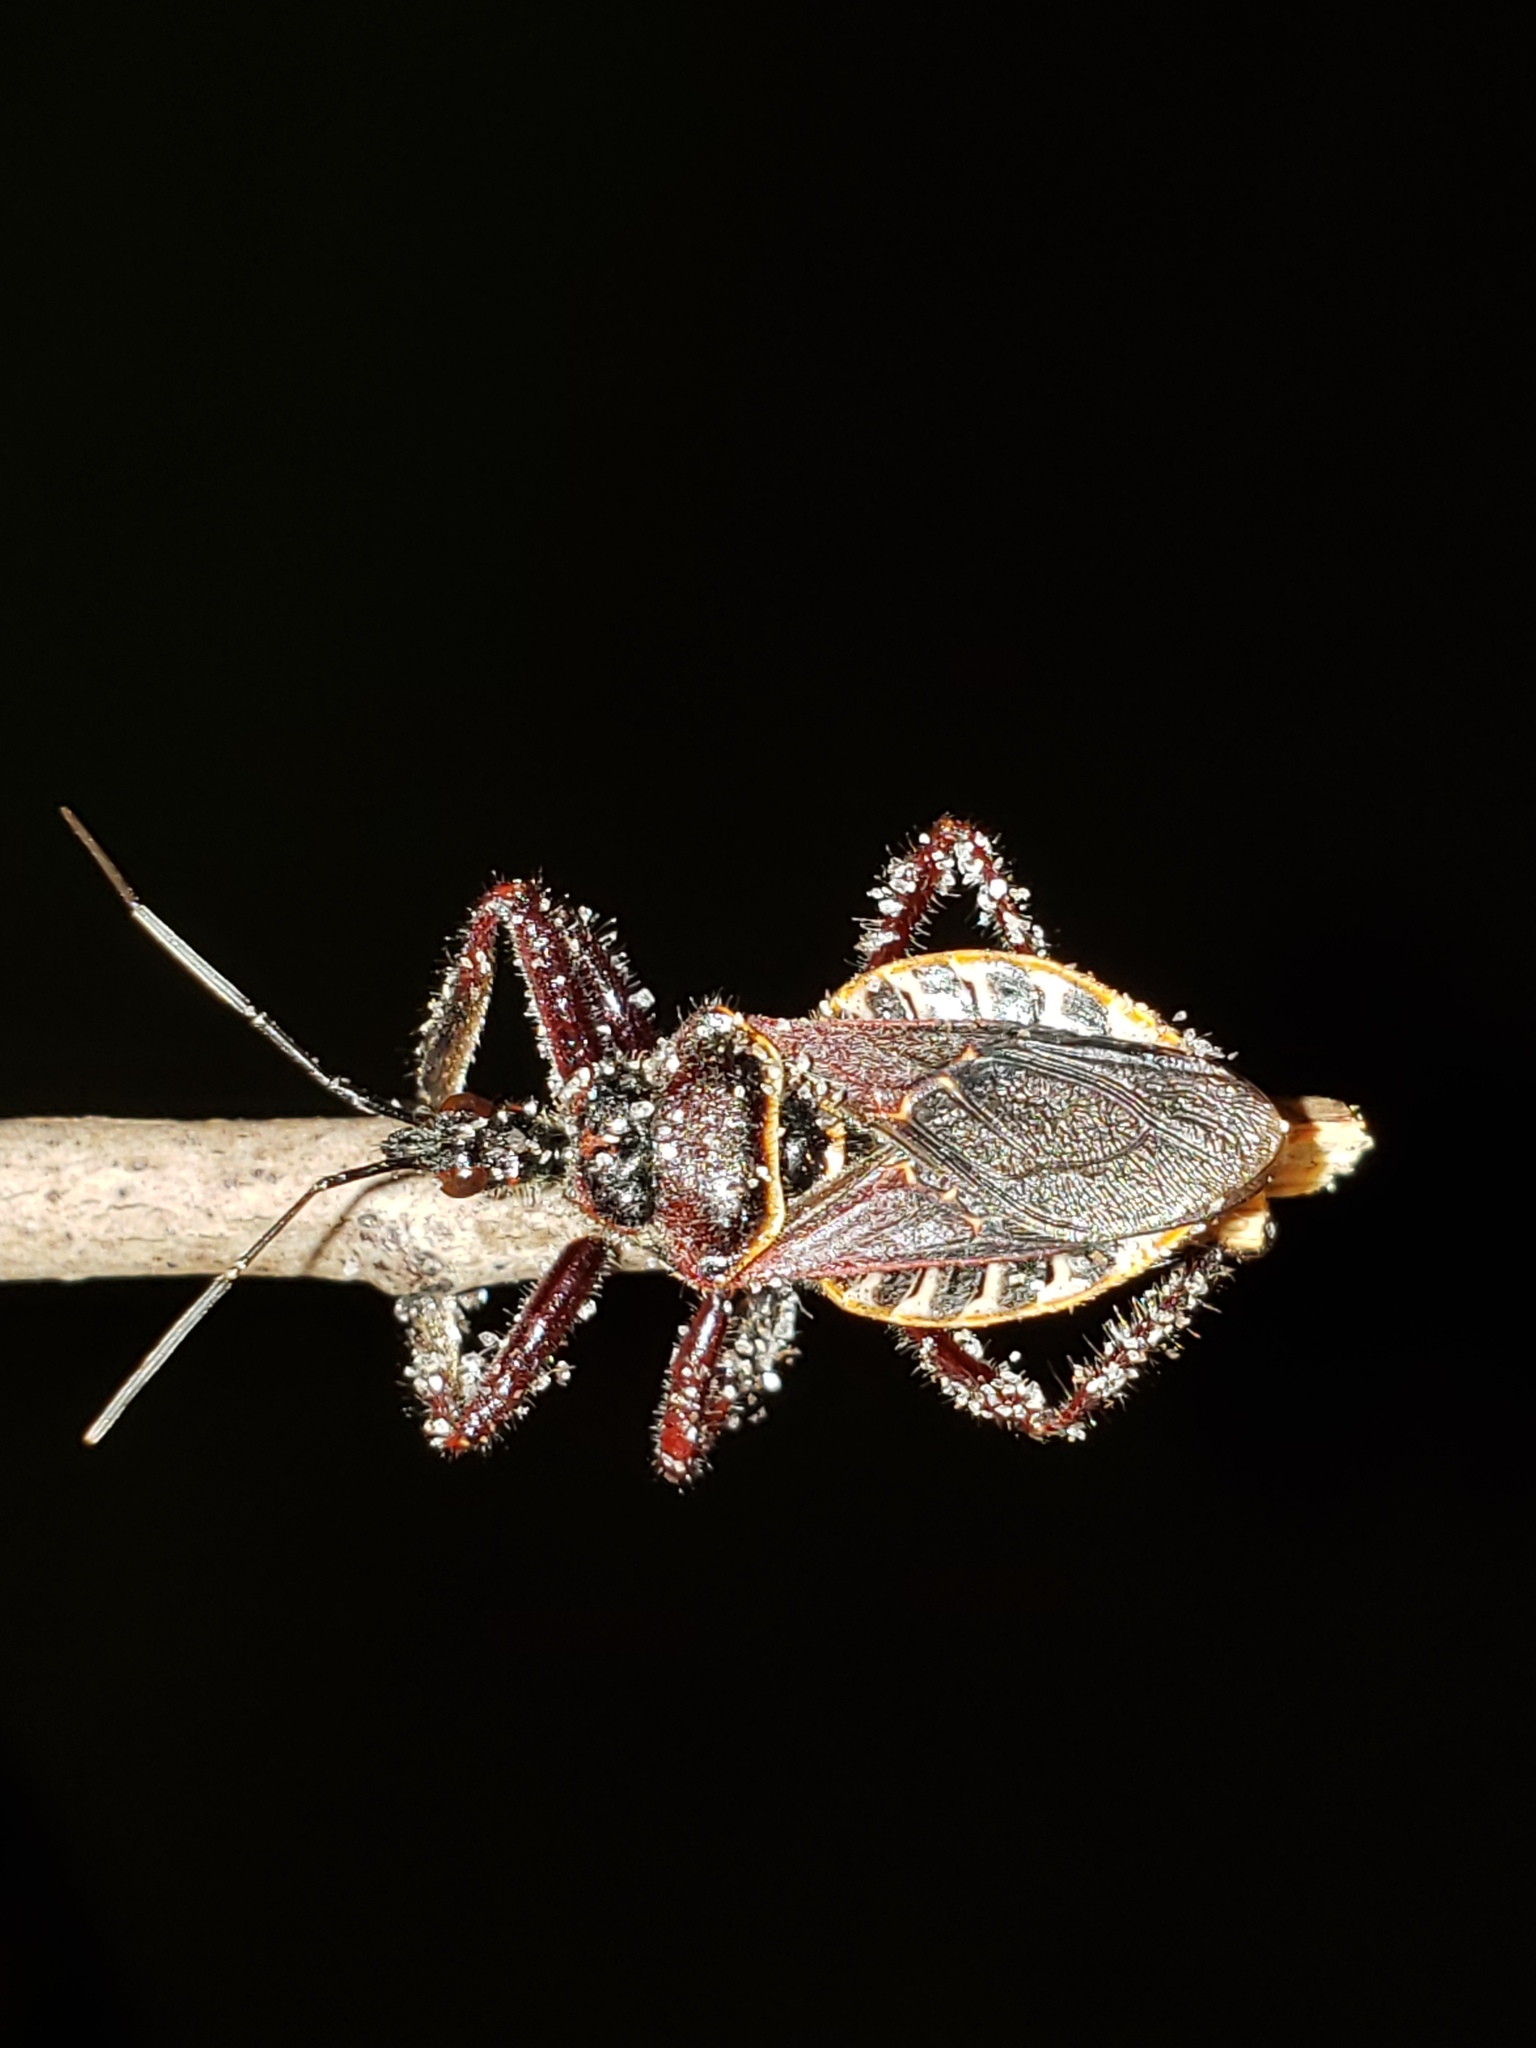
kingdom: Animalia
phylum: Arthropoda
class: Insecta
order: Hemiptera
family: Reduviidae
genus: Apiomerus
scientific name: Apiomerus floridensis
